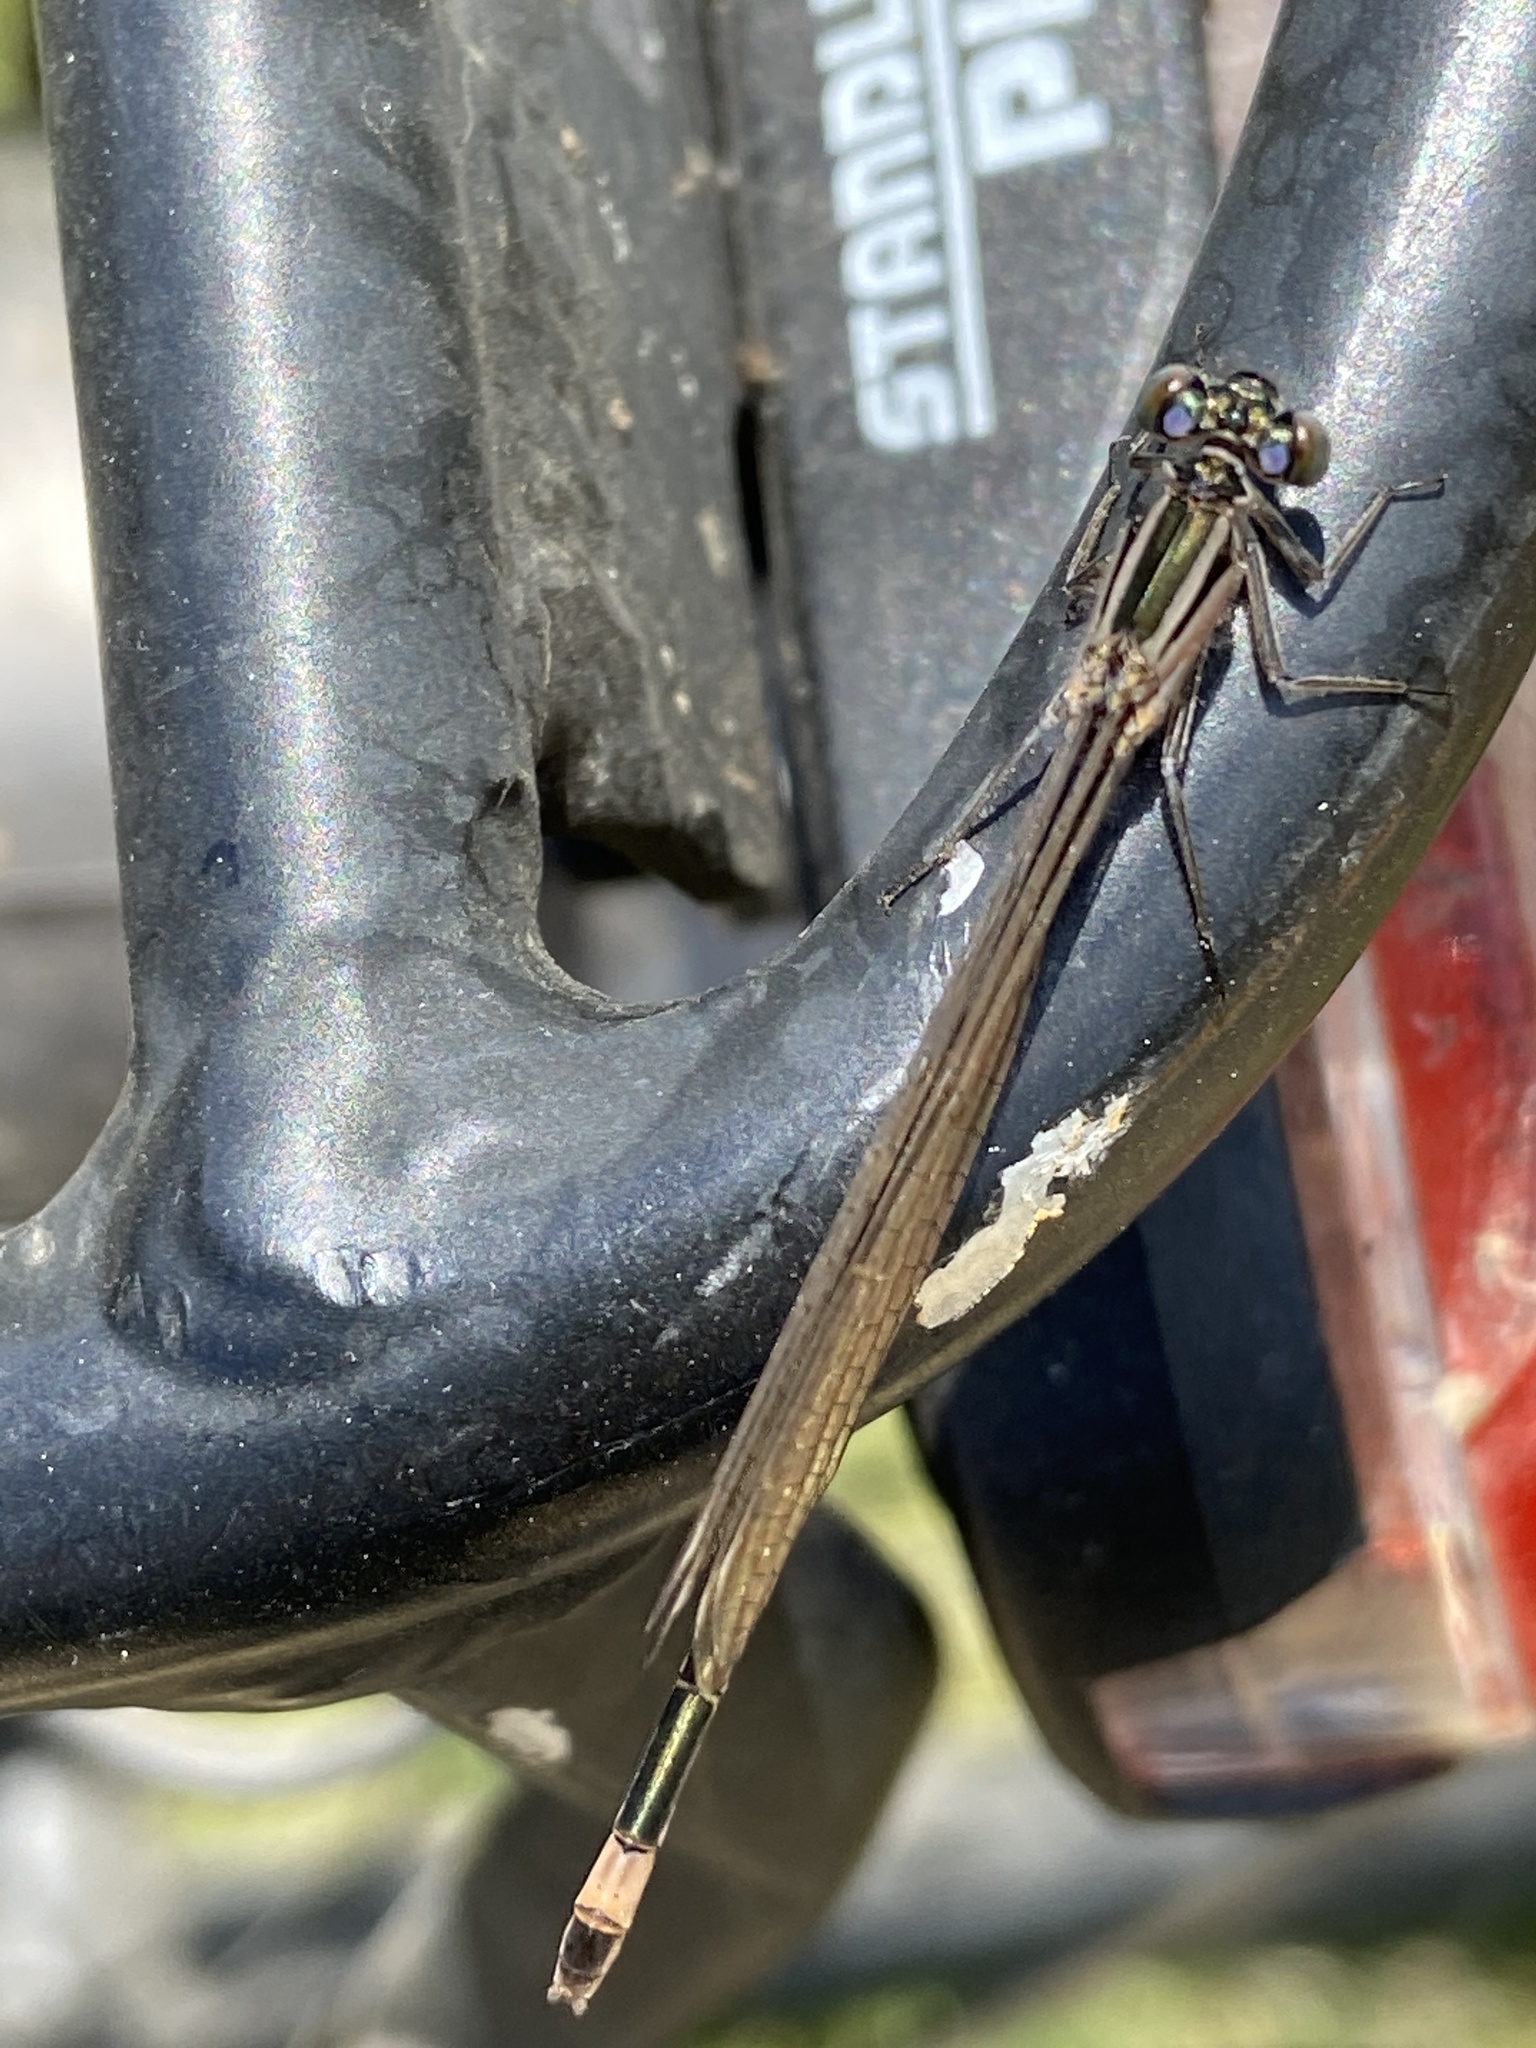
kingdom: Animalia
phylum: Arthropoda
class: Insecta
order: Odonata
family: Coenagrionidae
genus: Ischnura
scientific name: Ischnura elegans
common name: Blue-tailed damselfly
